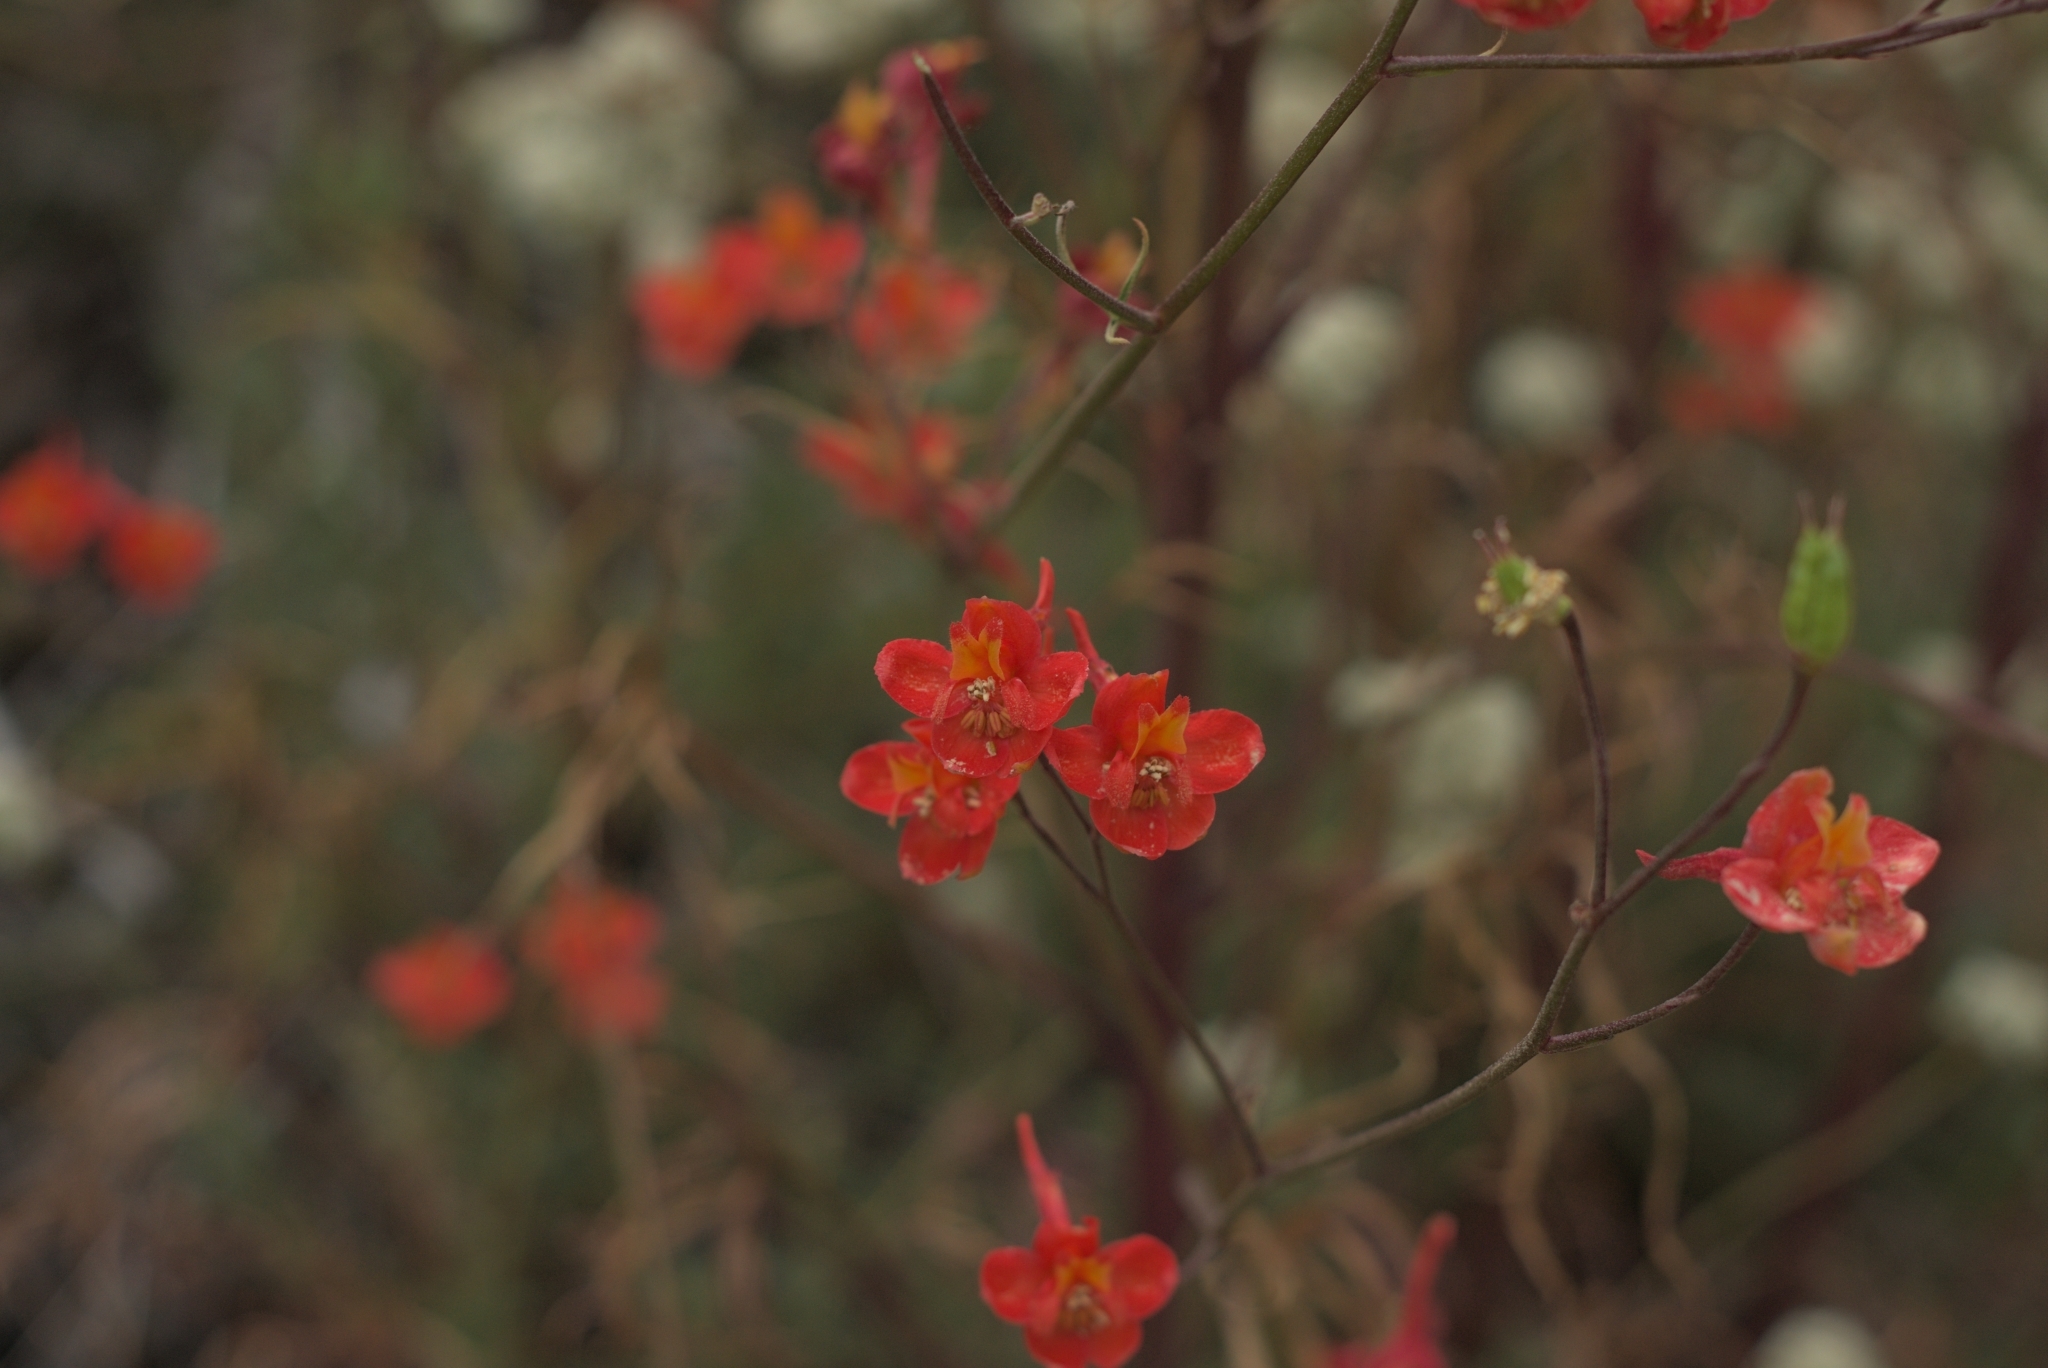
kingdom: Plantae
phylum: Tracheophyta
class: Magnoliopsida
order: Ranunculales
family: Ranunculaceae
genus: Delphinium
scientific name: Delphinium cardinale
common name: Scarlet larkspur
